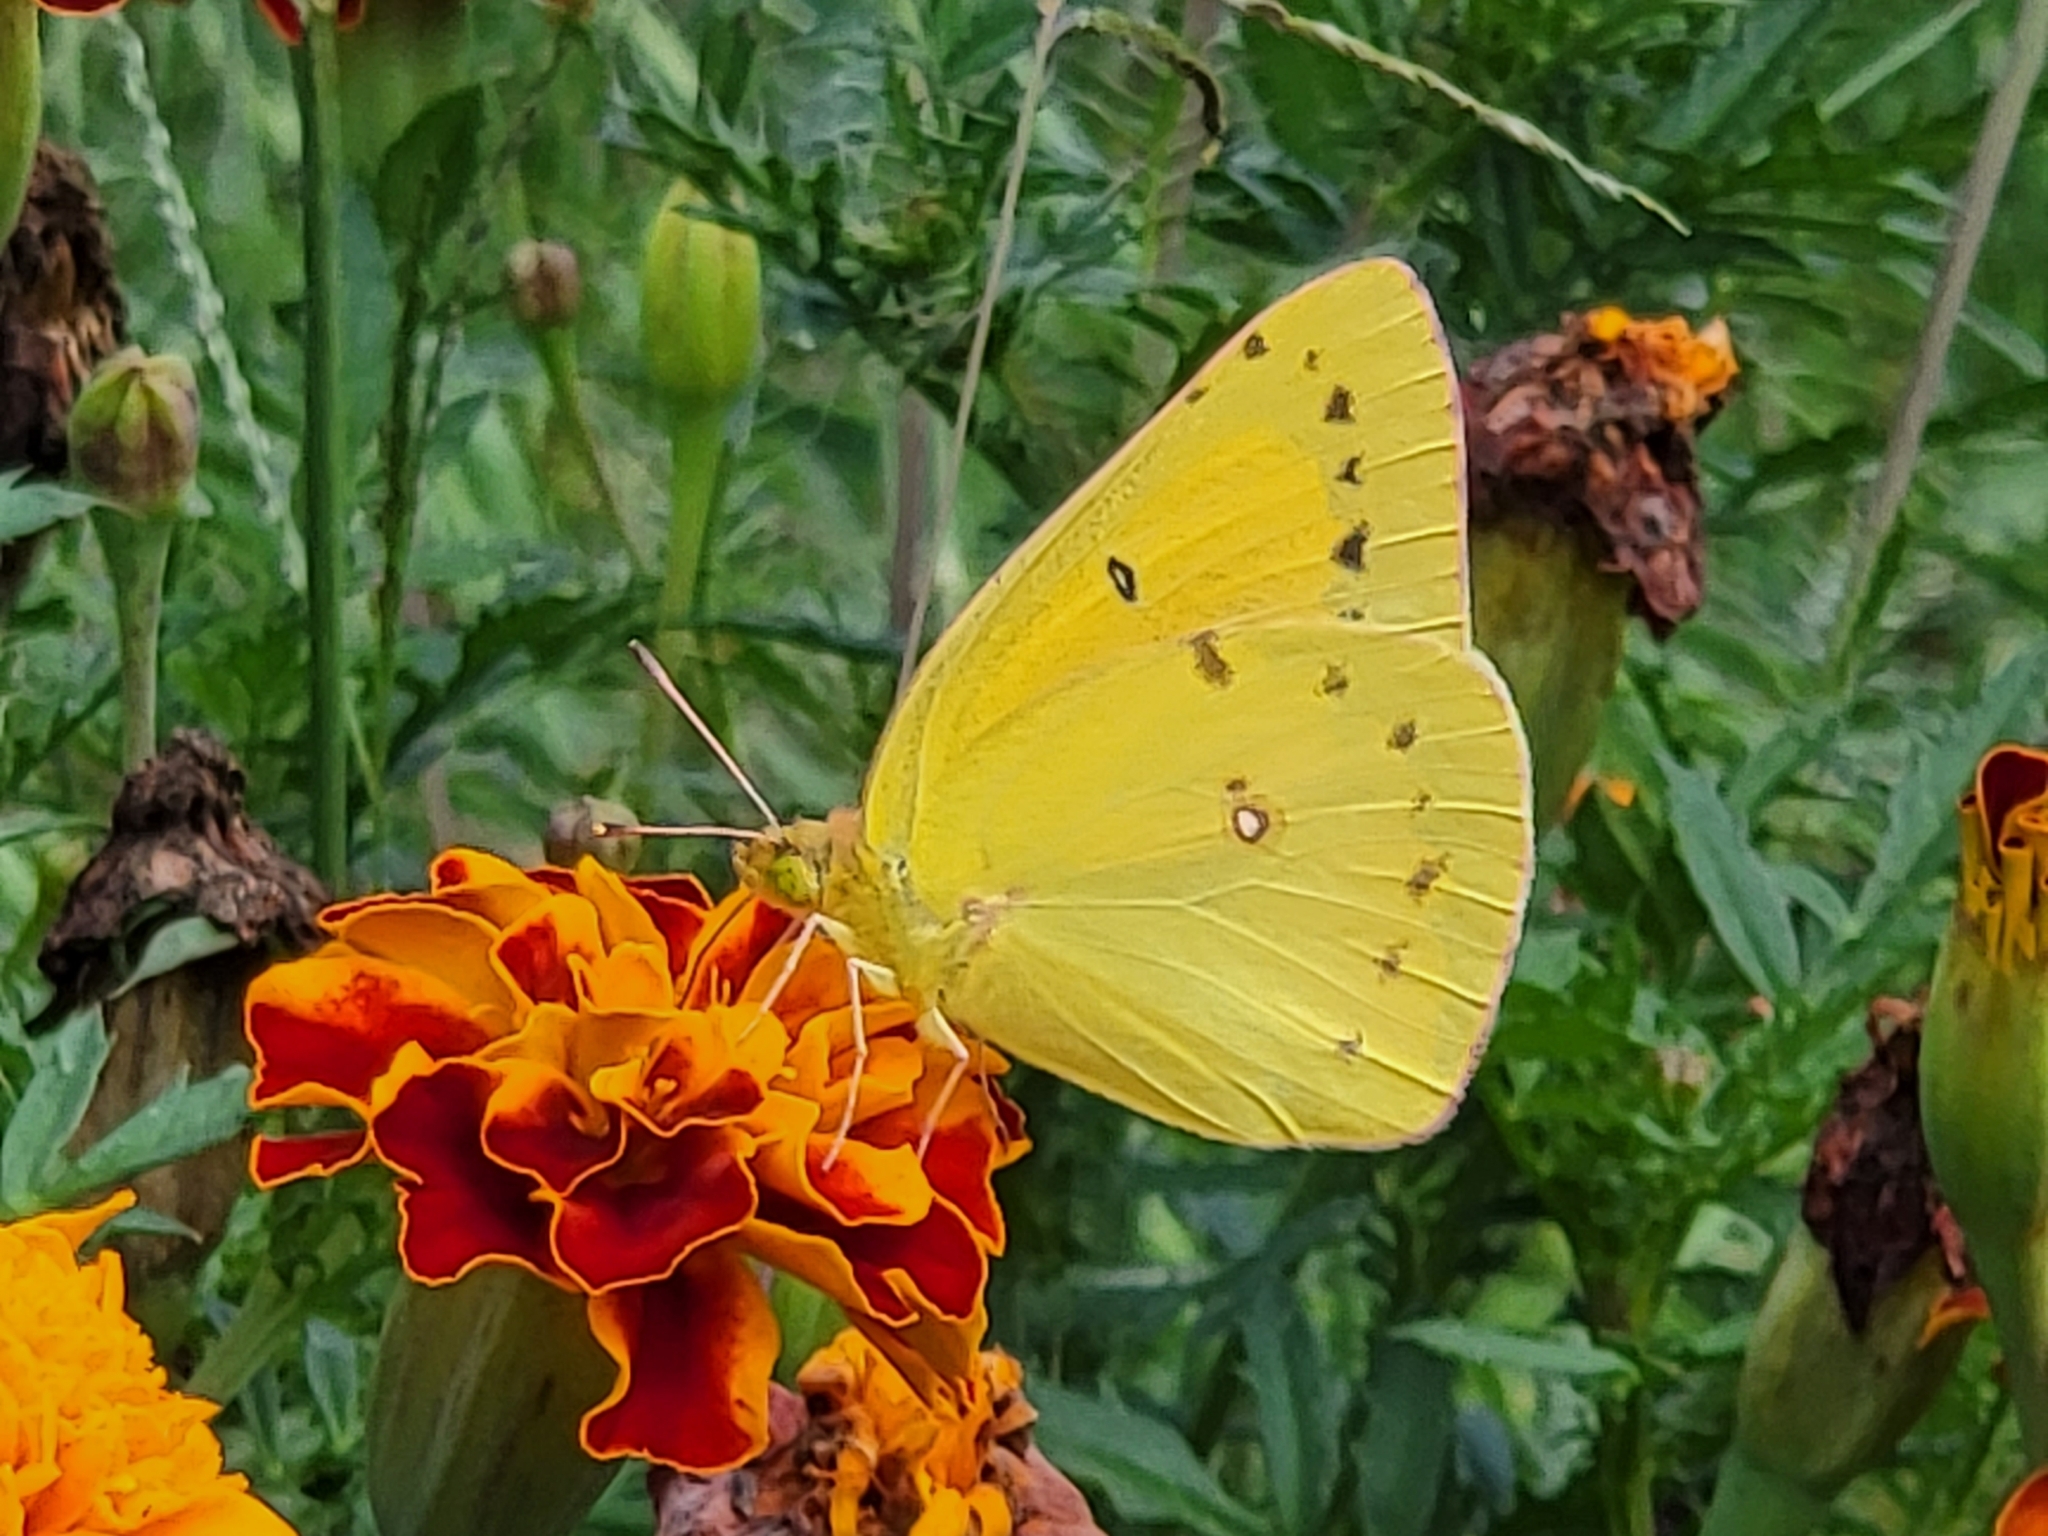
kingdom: Animalia
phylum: Arthropoda
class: Insecta
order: Lepidoptera
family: Pieridae
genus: Colias
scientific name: Colias eurytheme
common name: Alfalfa butterfly
